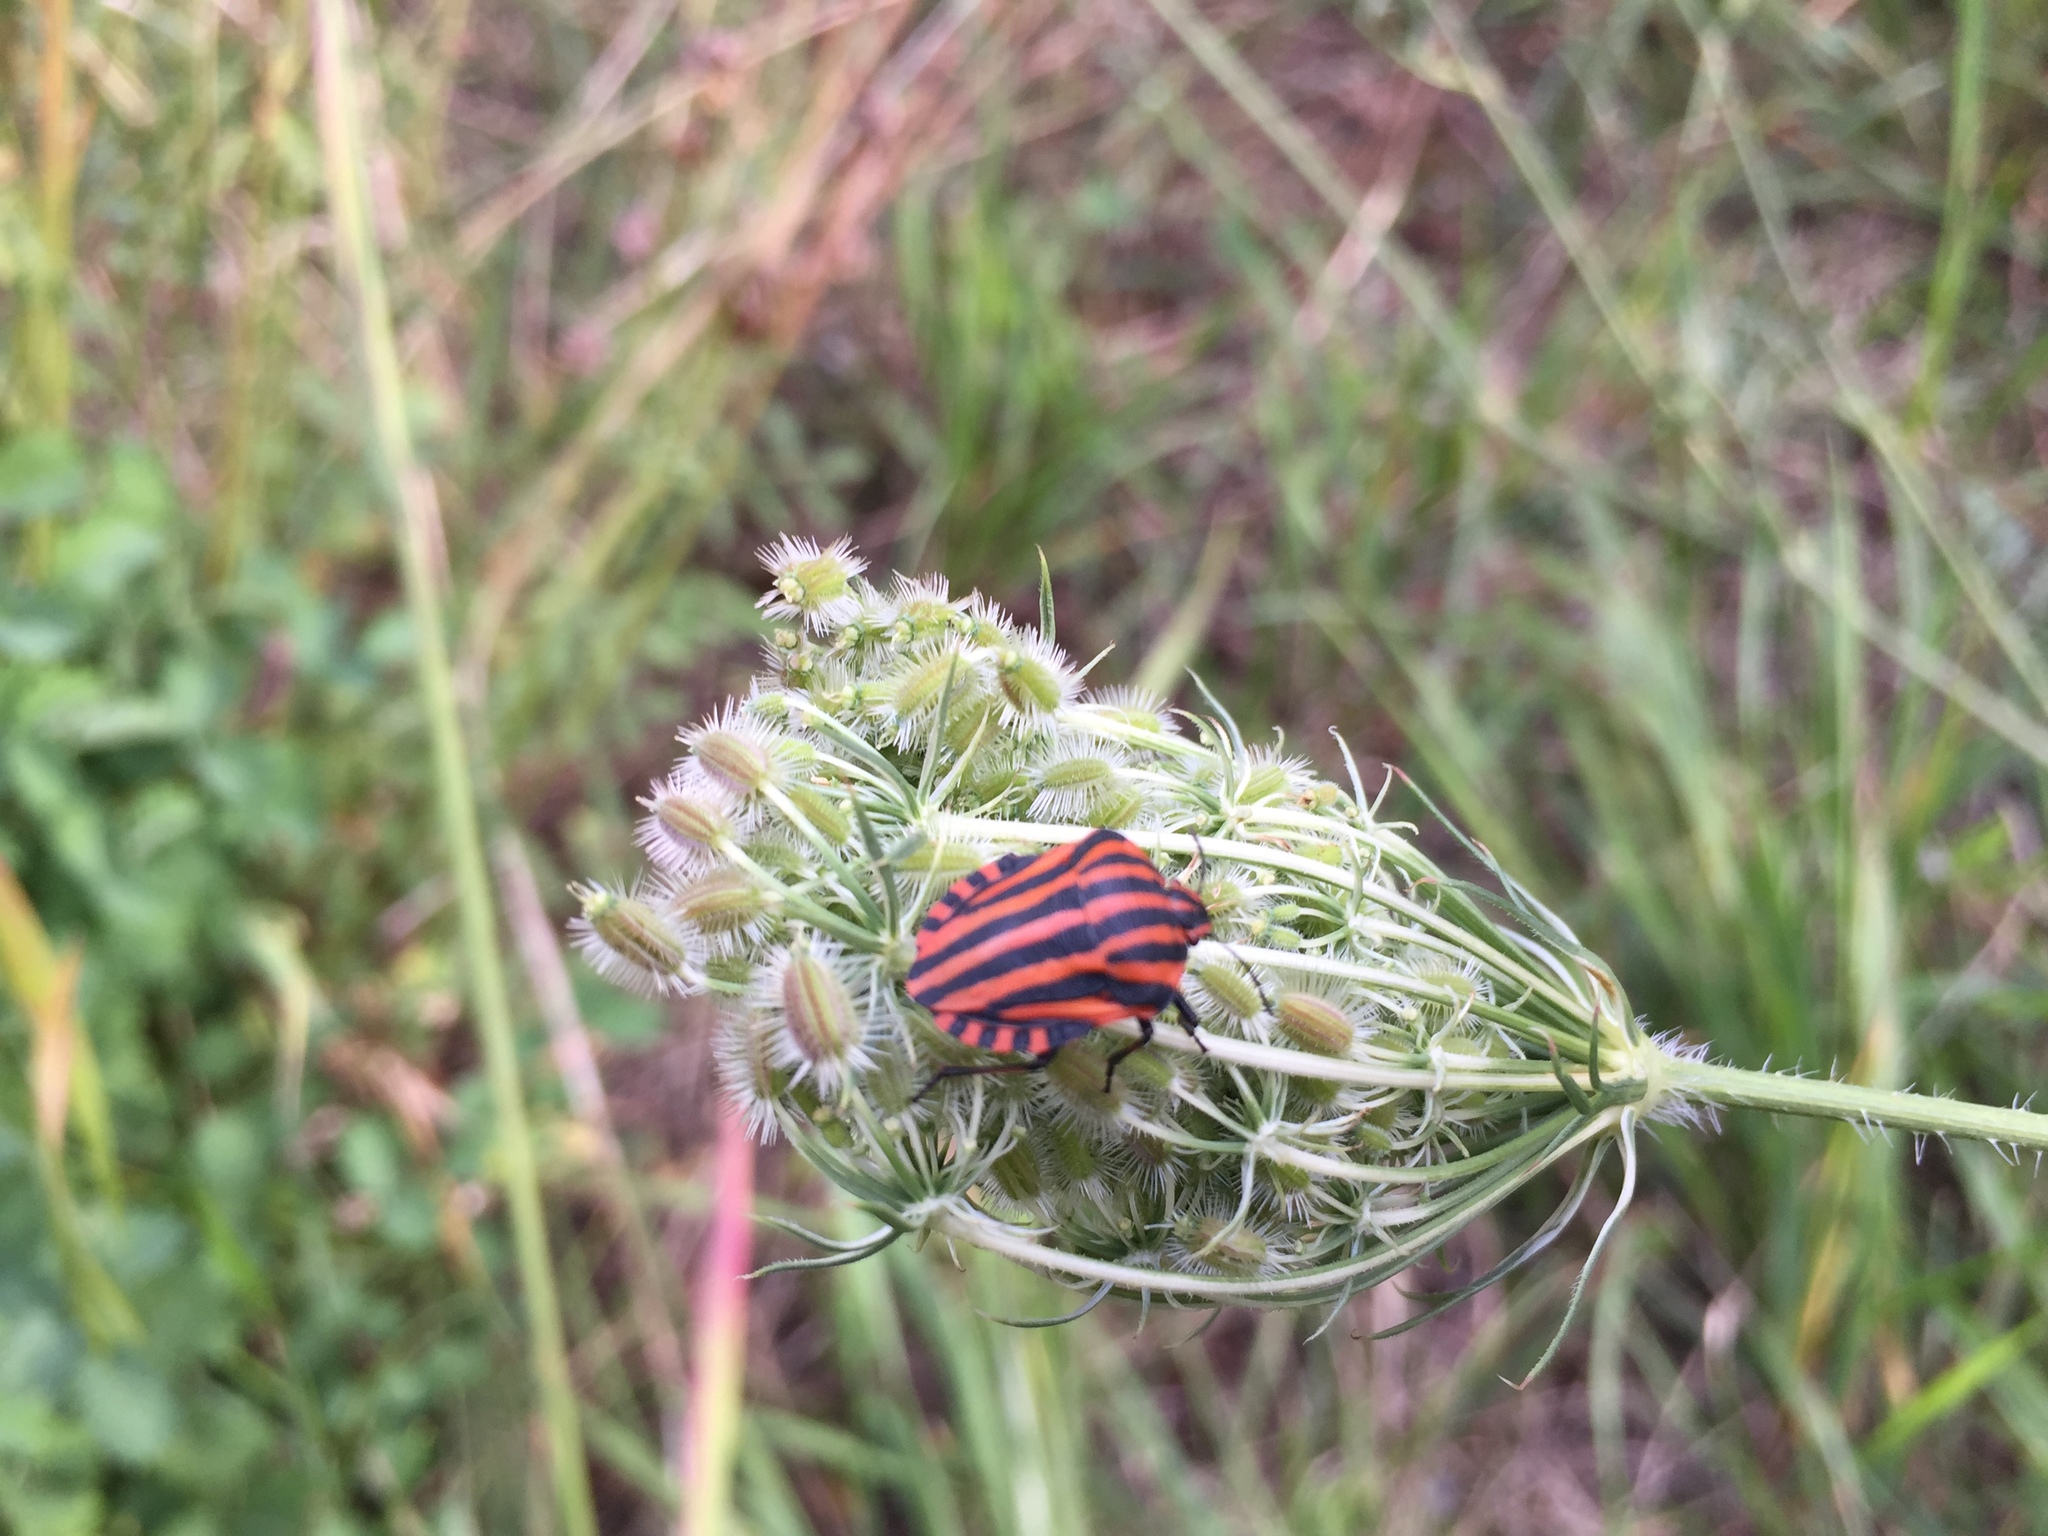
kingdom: Animalia
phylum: Arthropoda
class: Insecta
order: Hemiptera
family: Pentatomidae
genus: Graphosoma
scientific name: Graphosoma italicum
